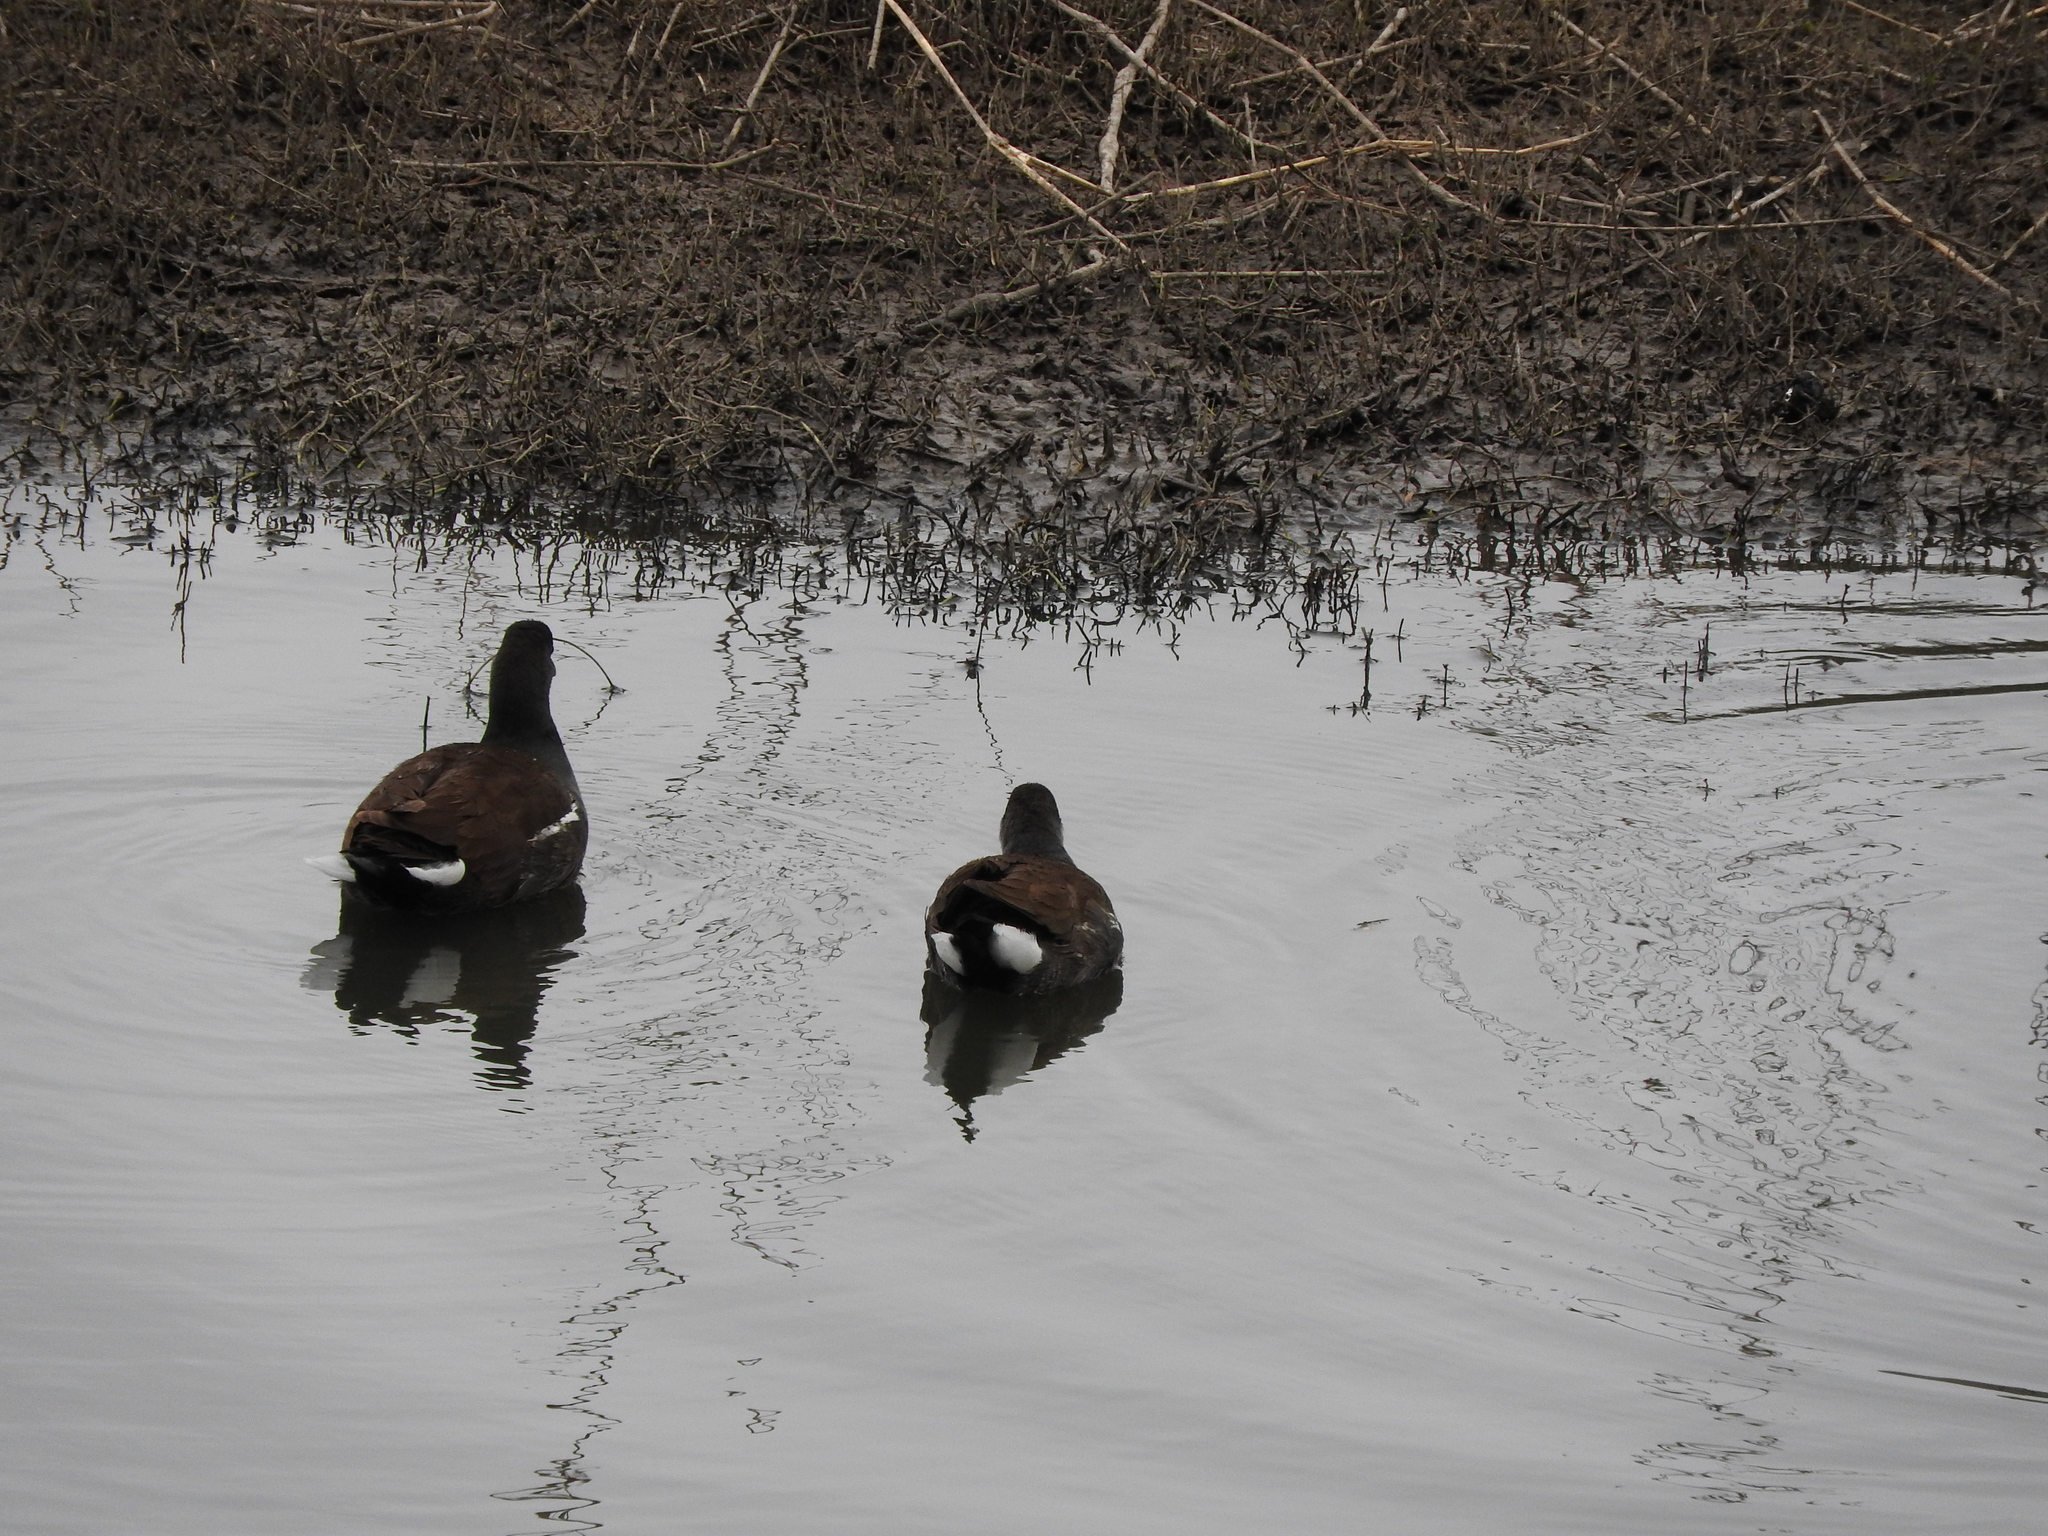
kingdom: Animalia
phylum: Chordata
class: Aves
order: Gruiformes
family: Rallidae
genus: Gallinula
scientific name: Gallinula chloropus
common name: Common moorhen
